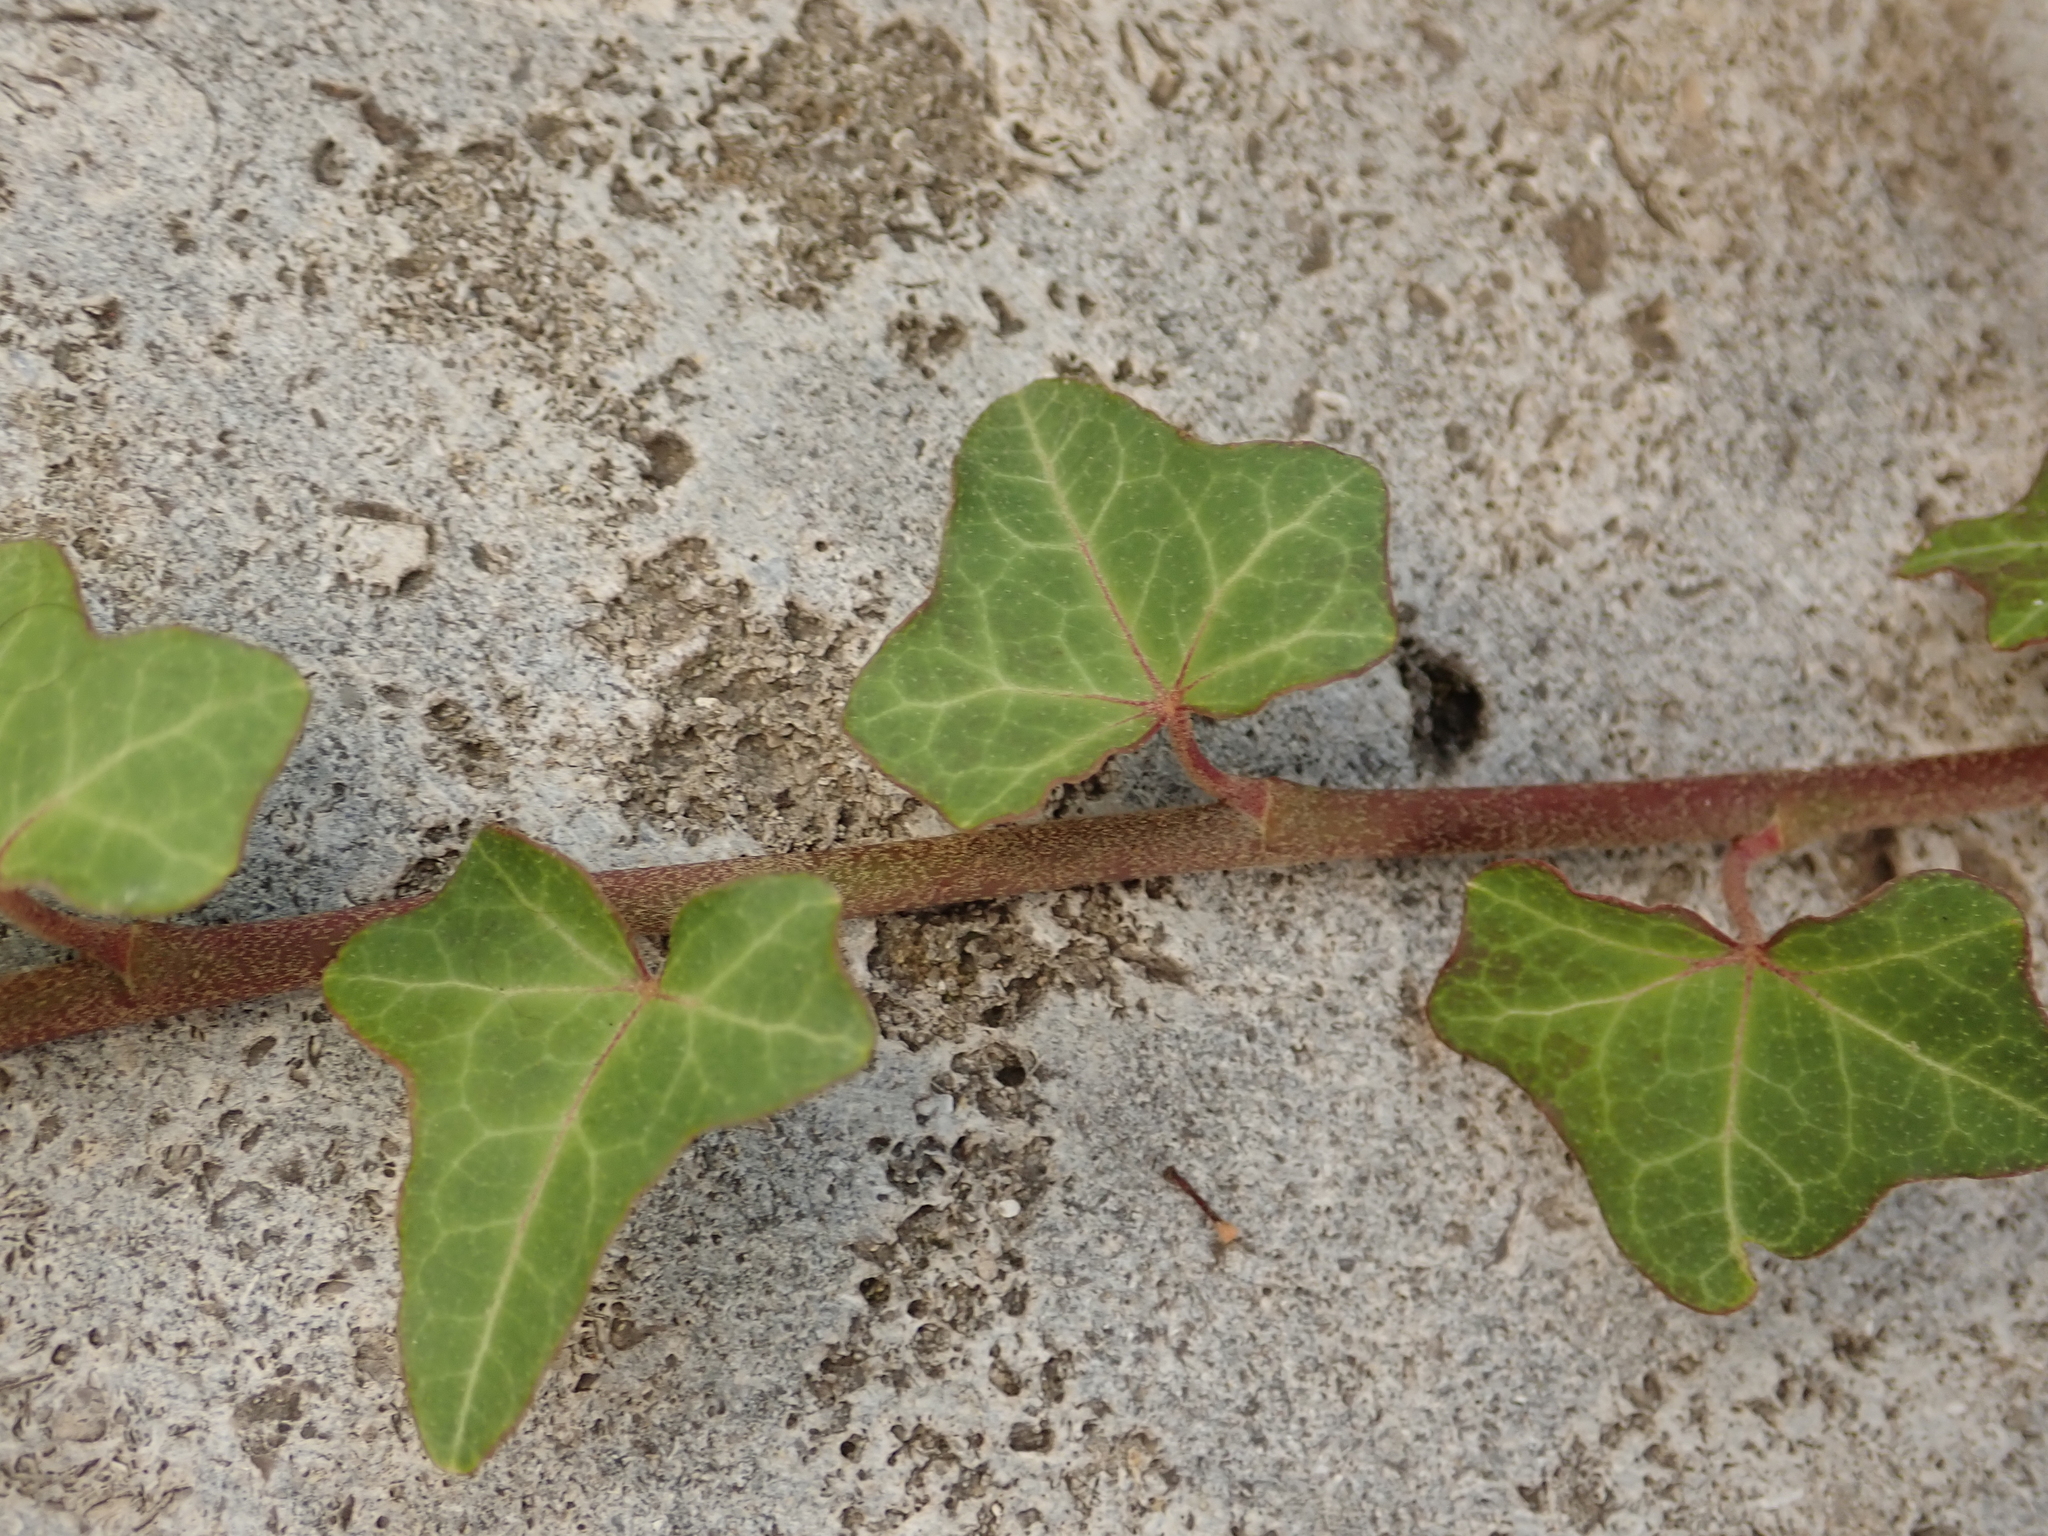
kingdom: Plantae
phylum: Tracheophyta
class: Magnoliopsida
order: Apiales
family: Araliaceae
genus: Hedera
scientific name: Hedera helix
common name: Ivy
